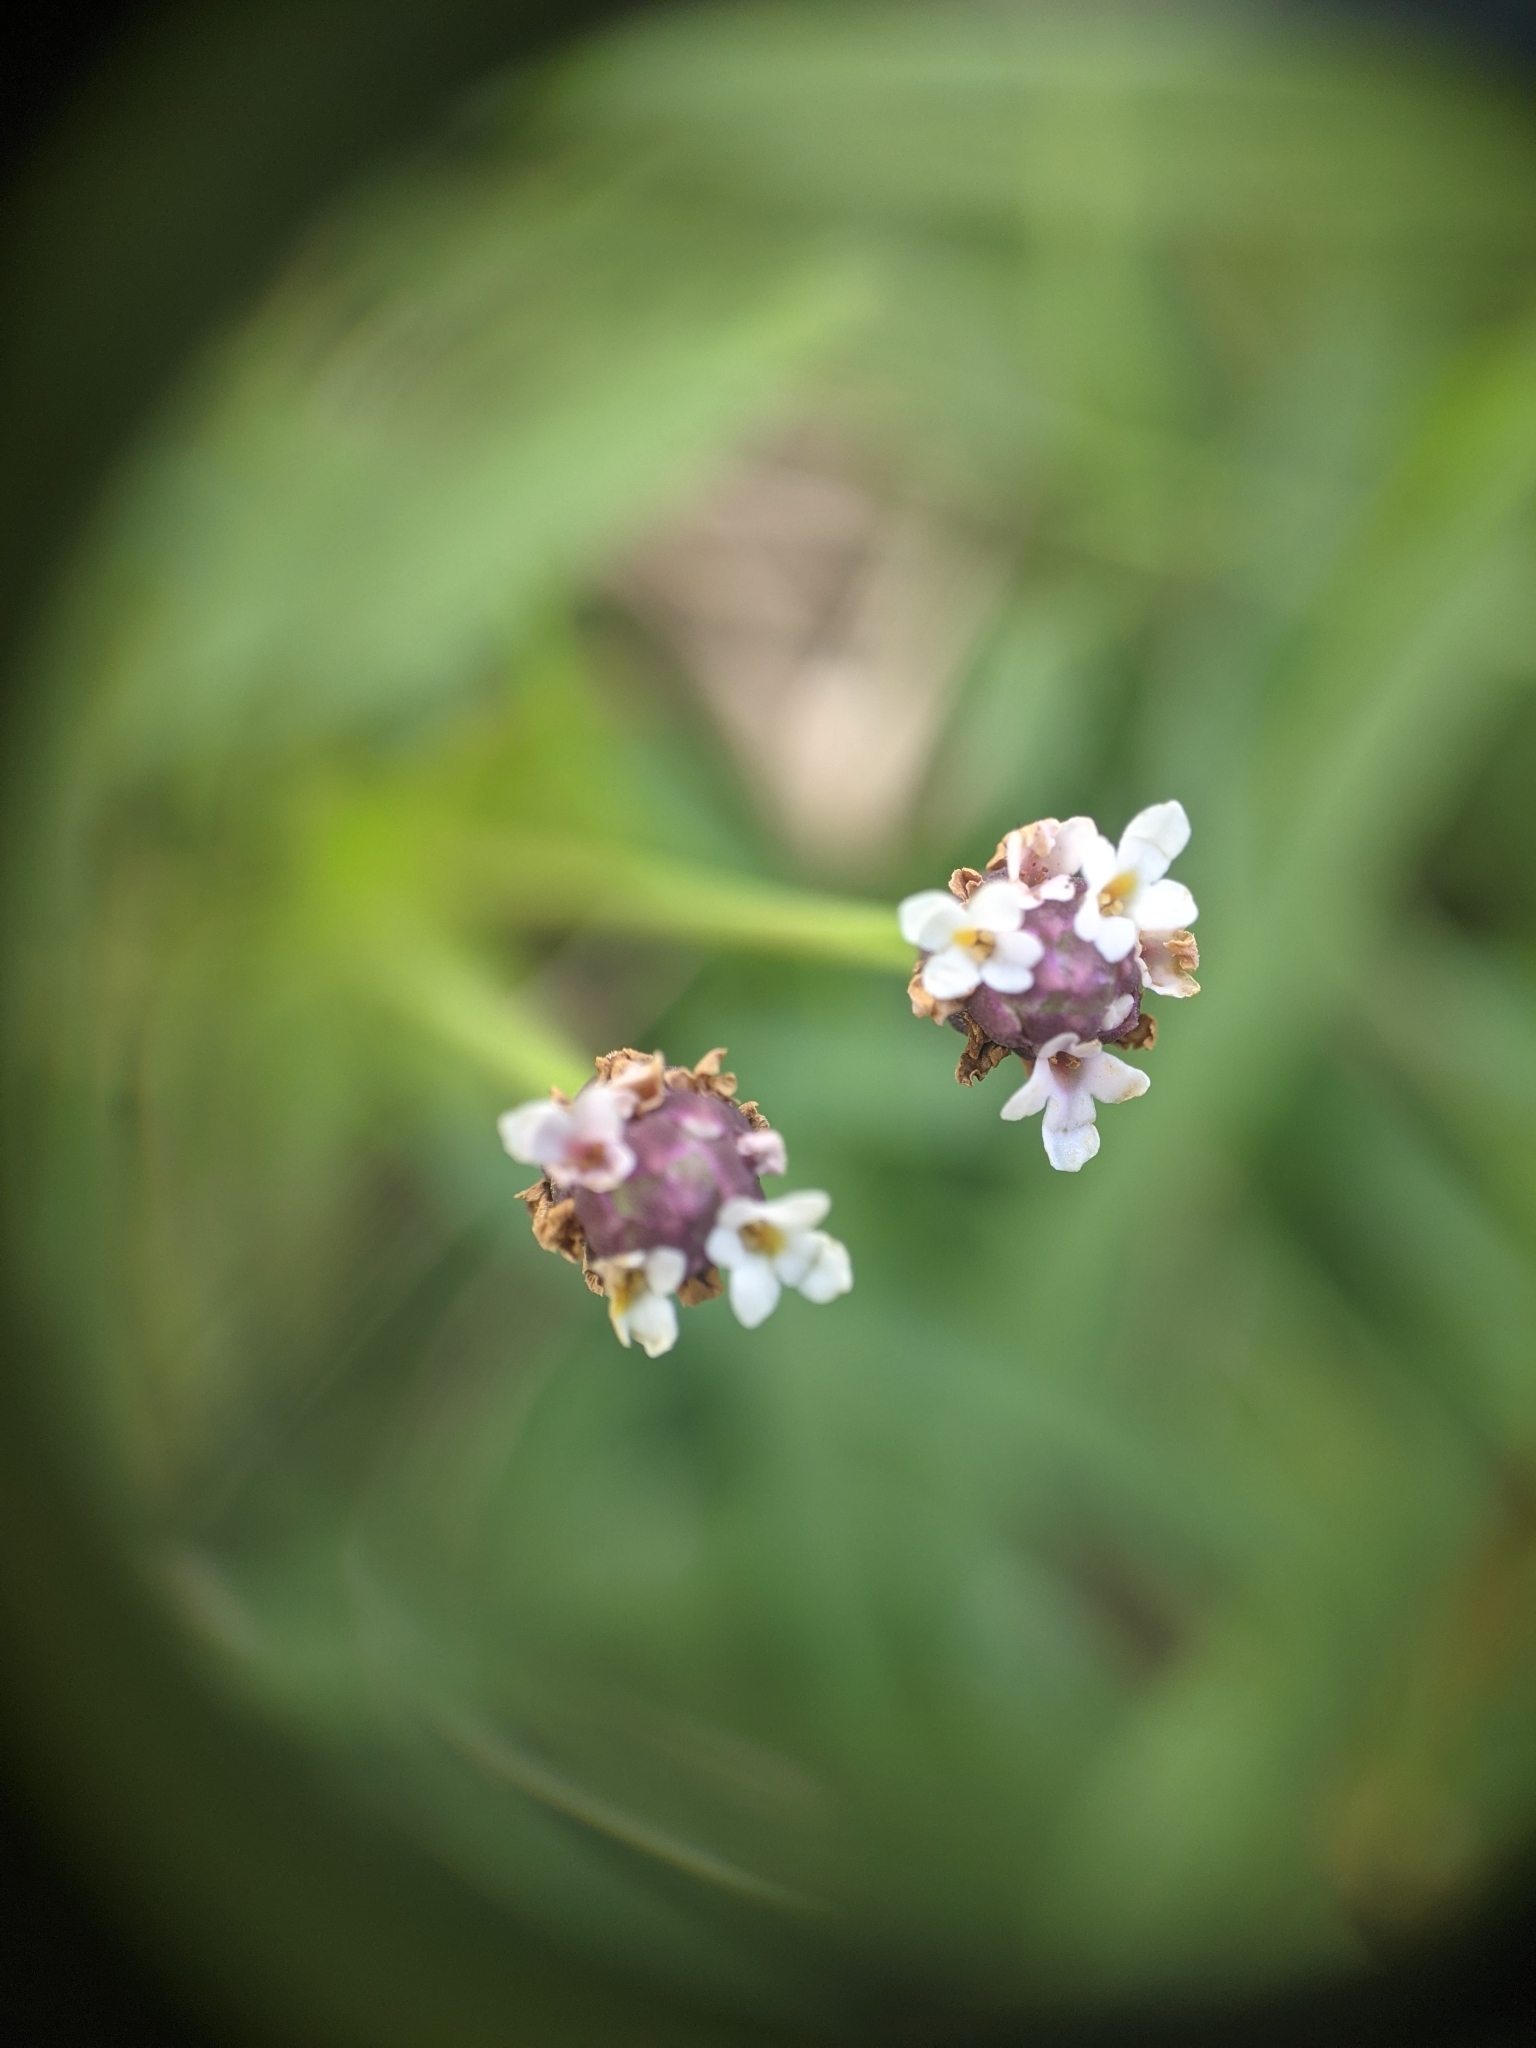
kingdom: Plantae
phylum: Tracheophyta
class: Magnoliopsida
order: Lamiales
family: Verbenaceae
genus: Phyla
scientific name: Phyla nodiflora
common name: Frogfruit
